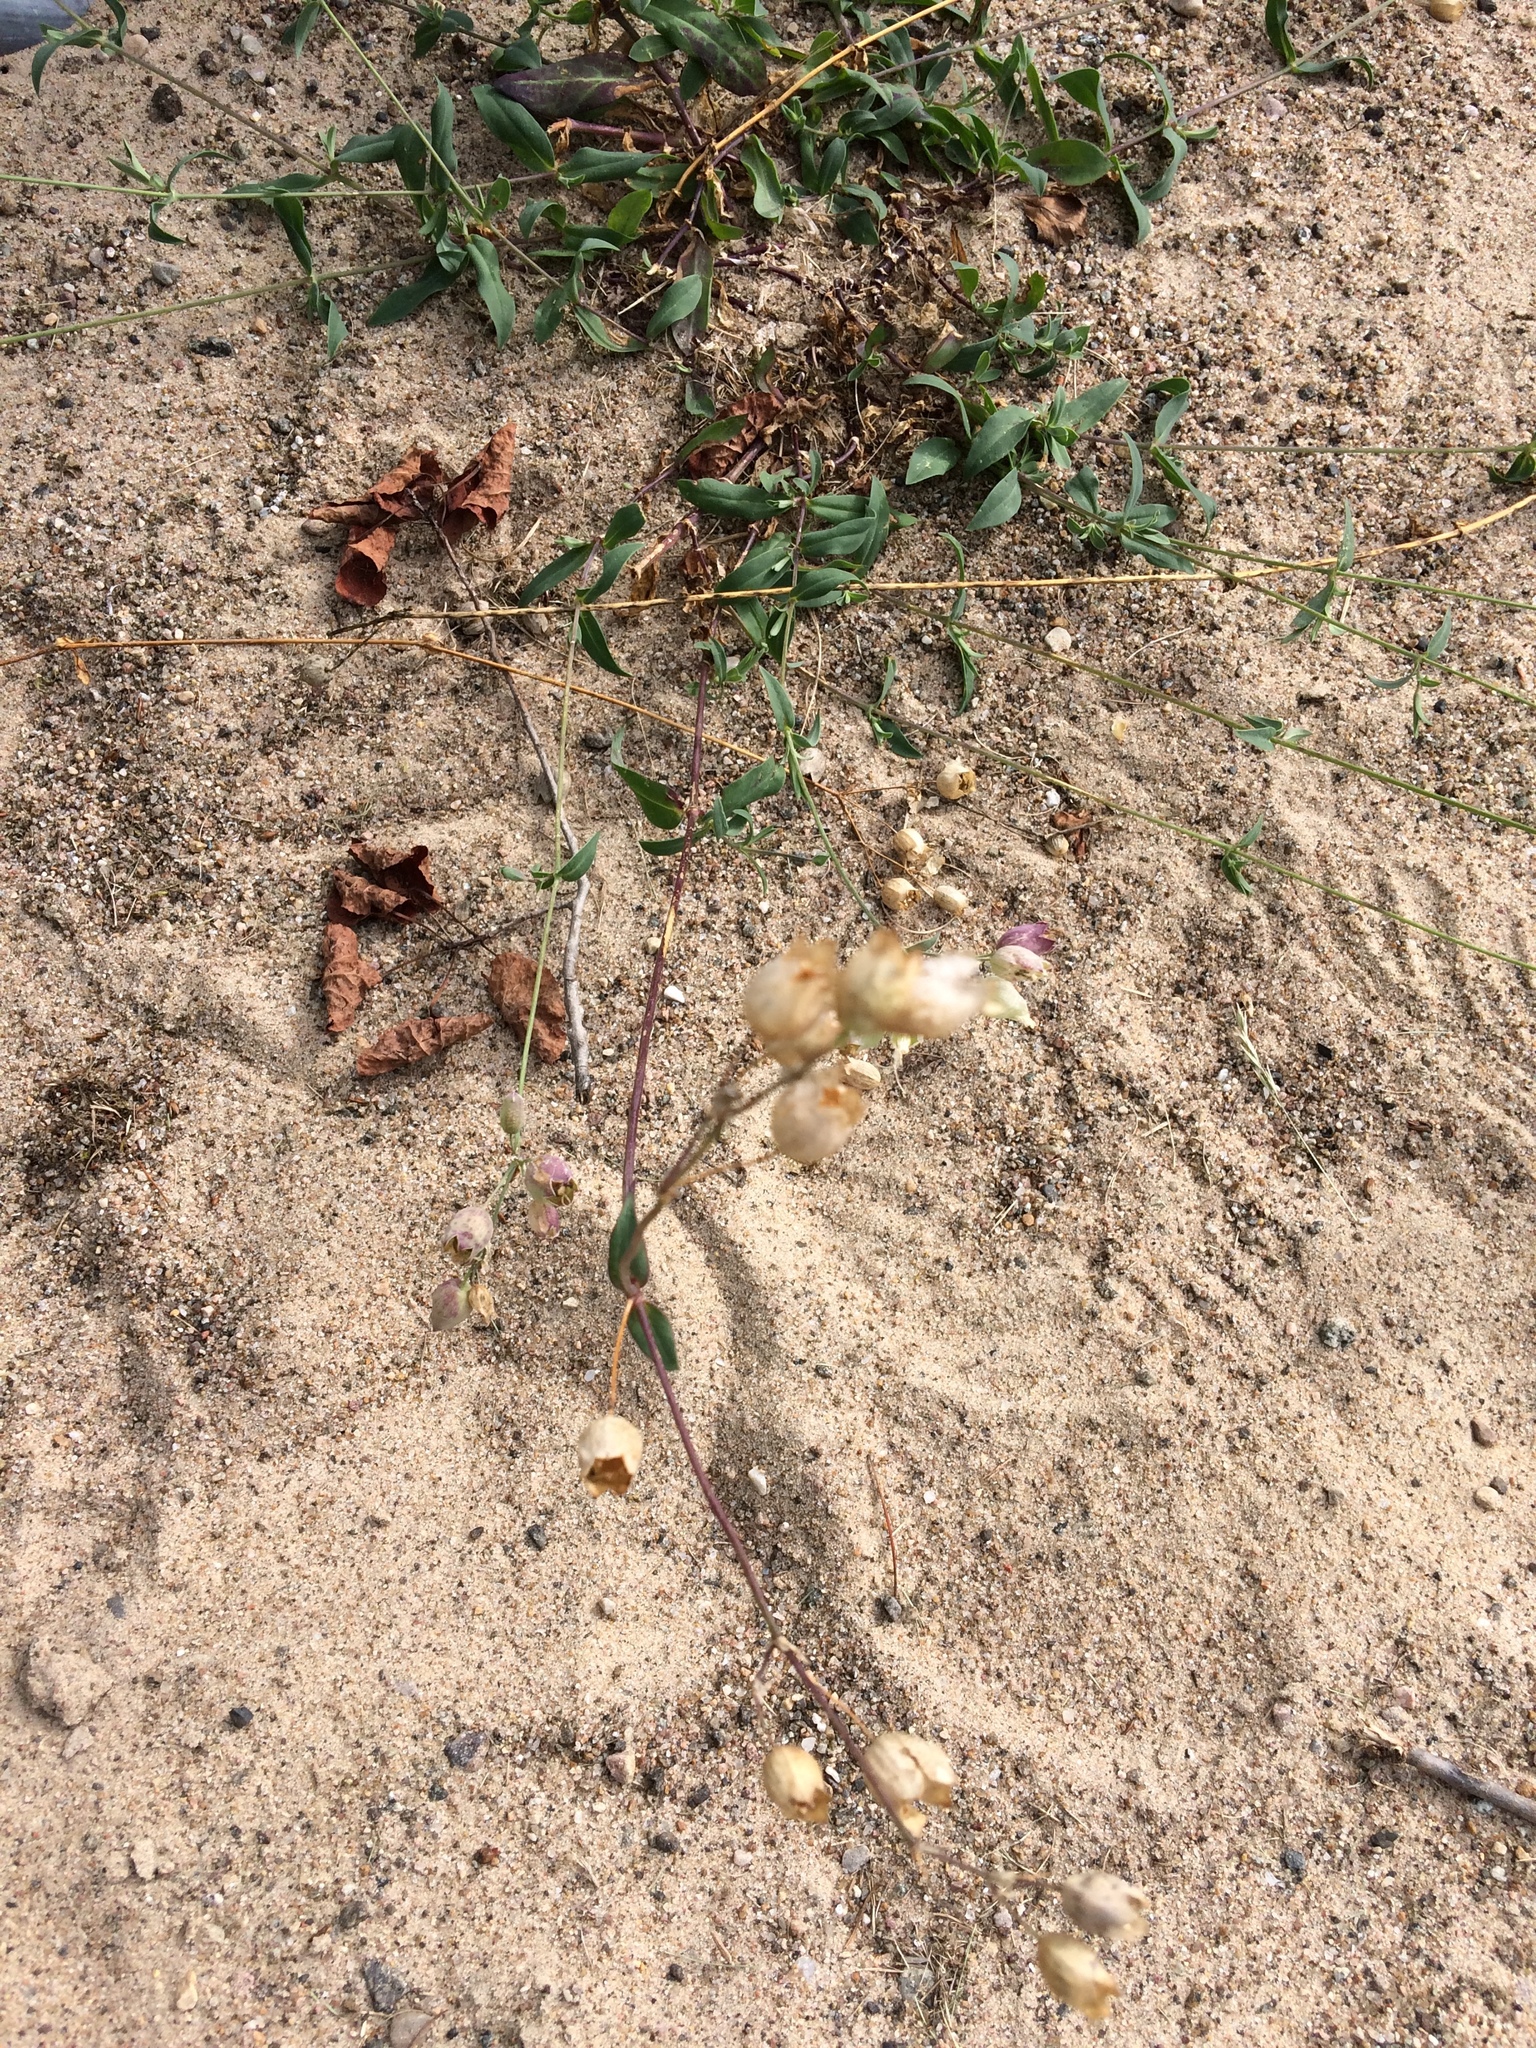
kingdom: Plantae
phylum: Tracheophyta
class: Magnoliopsida
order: Caryophyllales
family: Caryophyllaceae
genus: Silene
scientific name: Silene vulgaris
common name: Bladder campion
